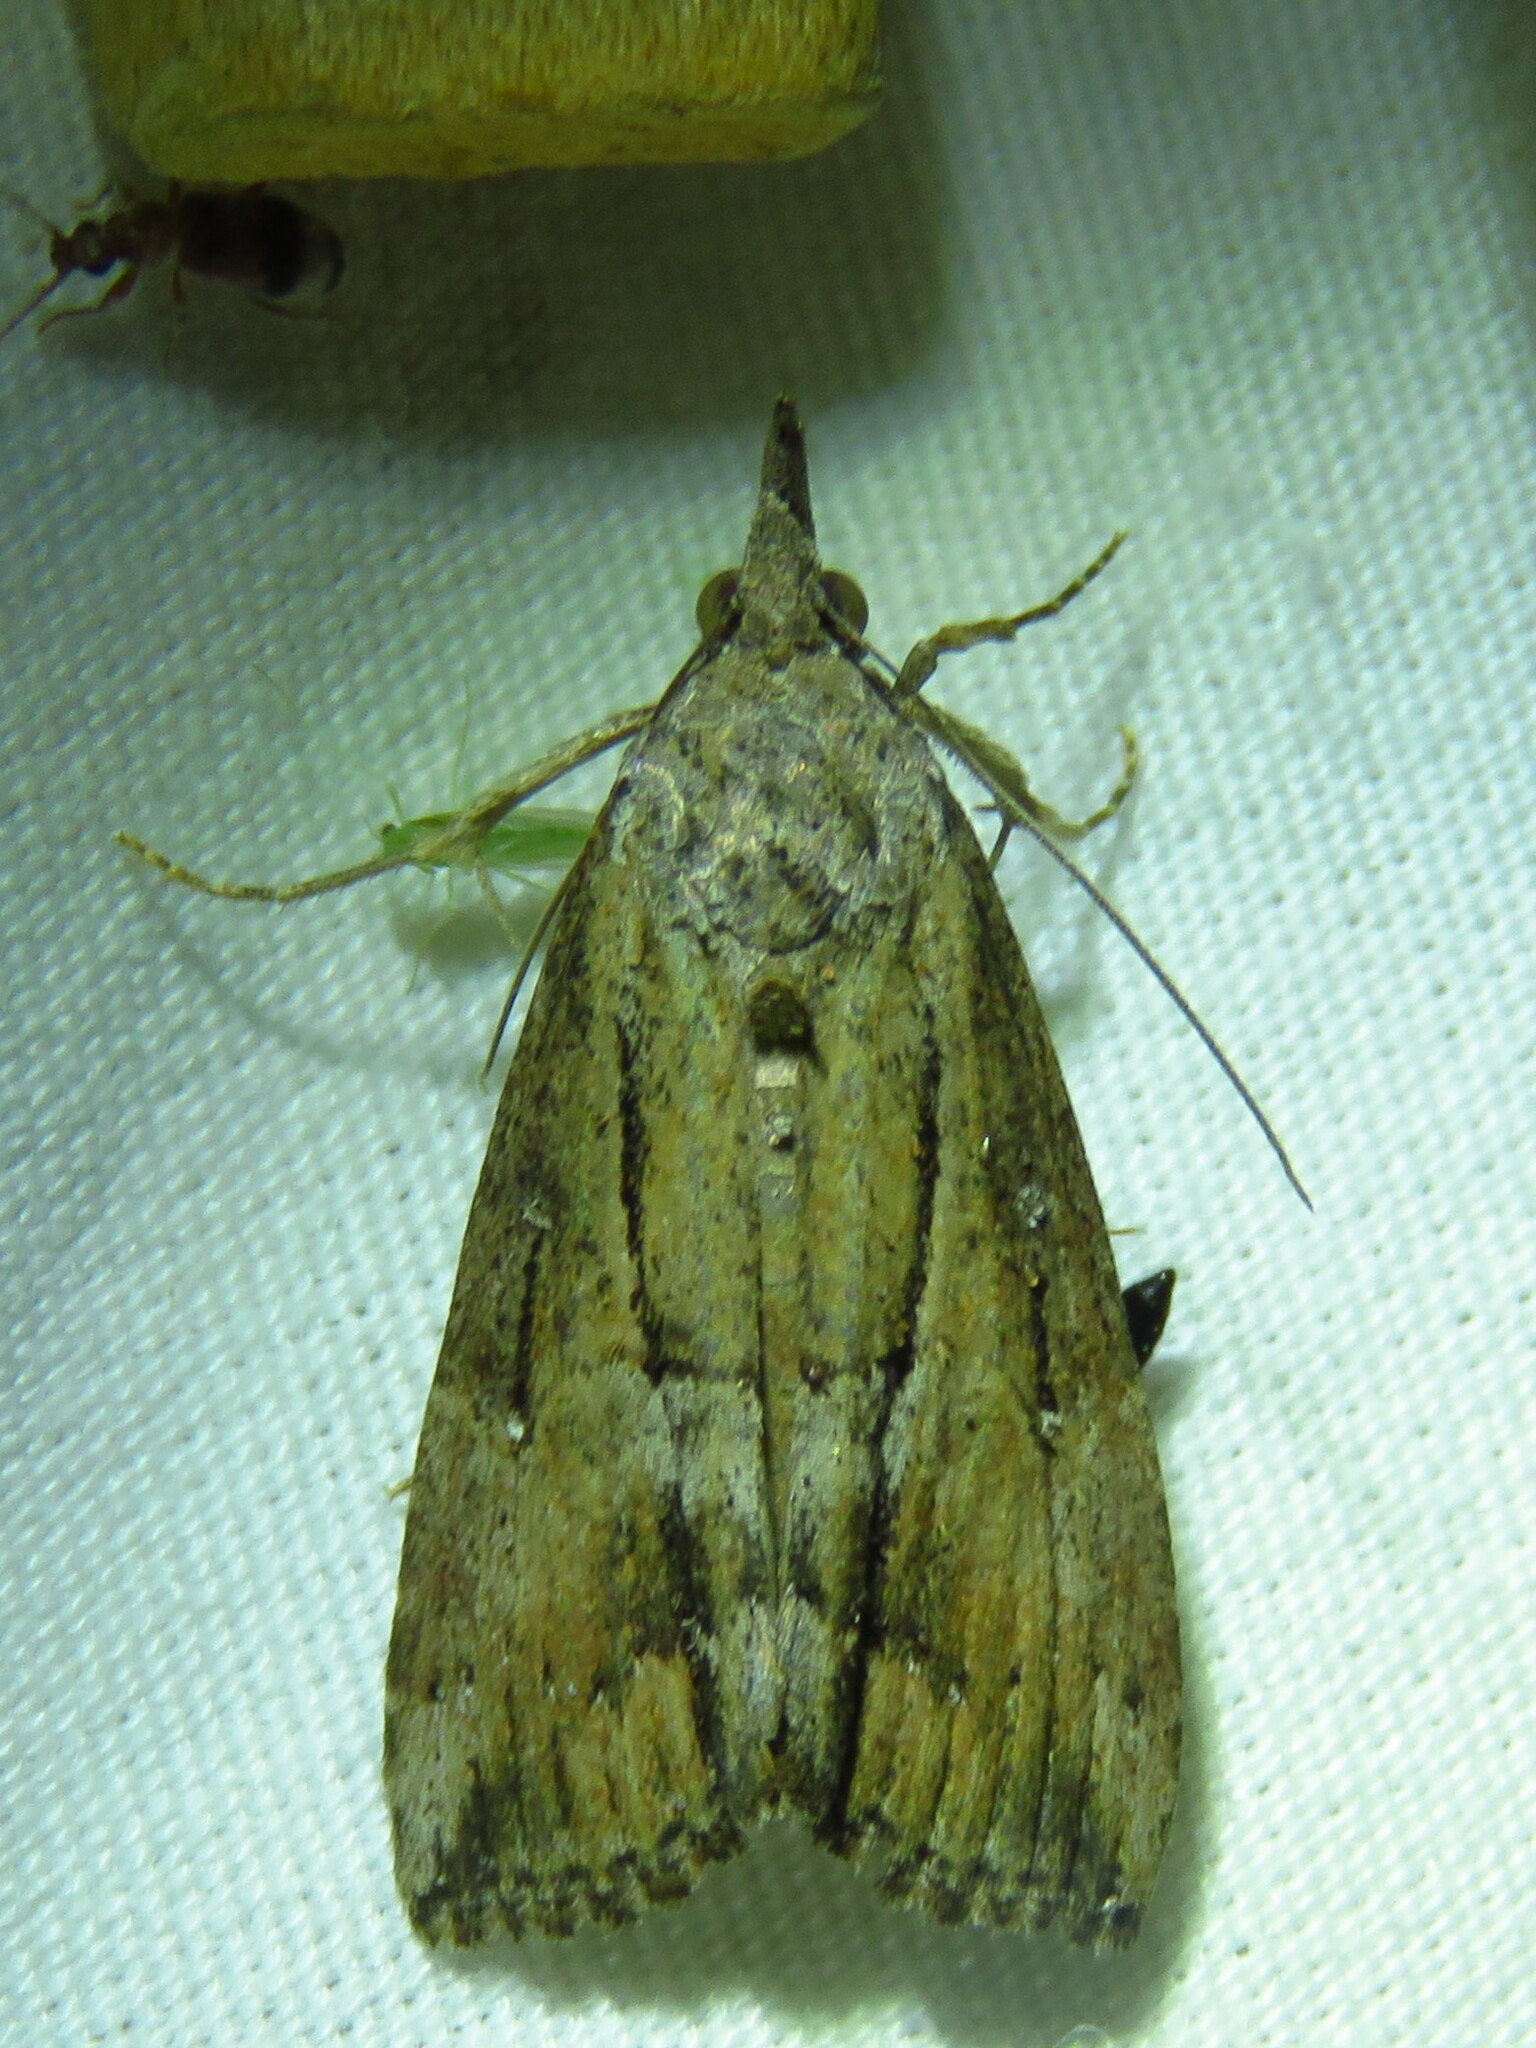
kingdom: Animalia
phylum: Arthropoda
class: Insecta
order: Lepidoptera
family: Erebidae
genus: Hypena
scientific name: Hypena scabra
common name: Green cloverworm
